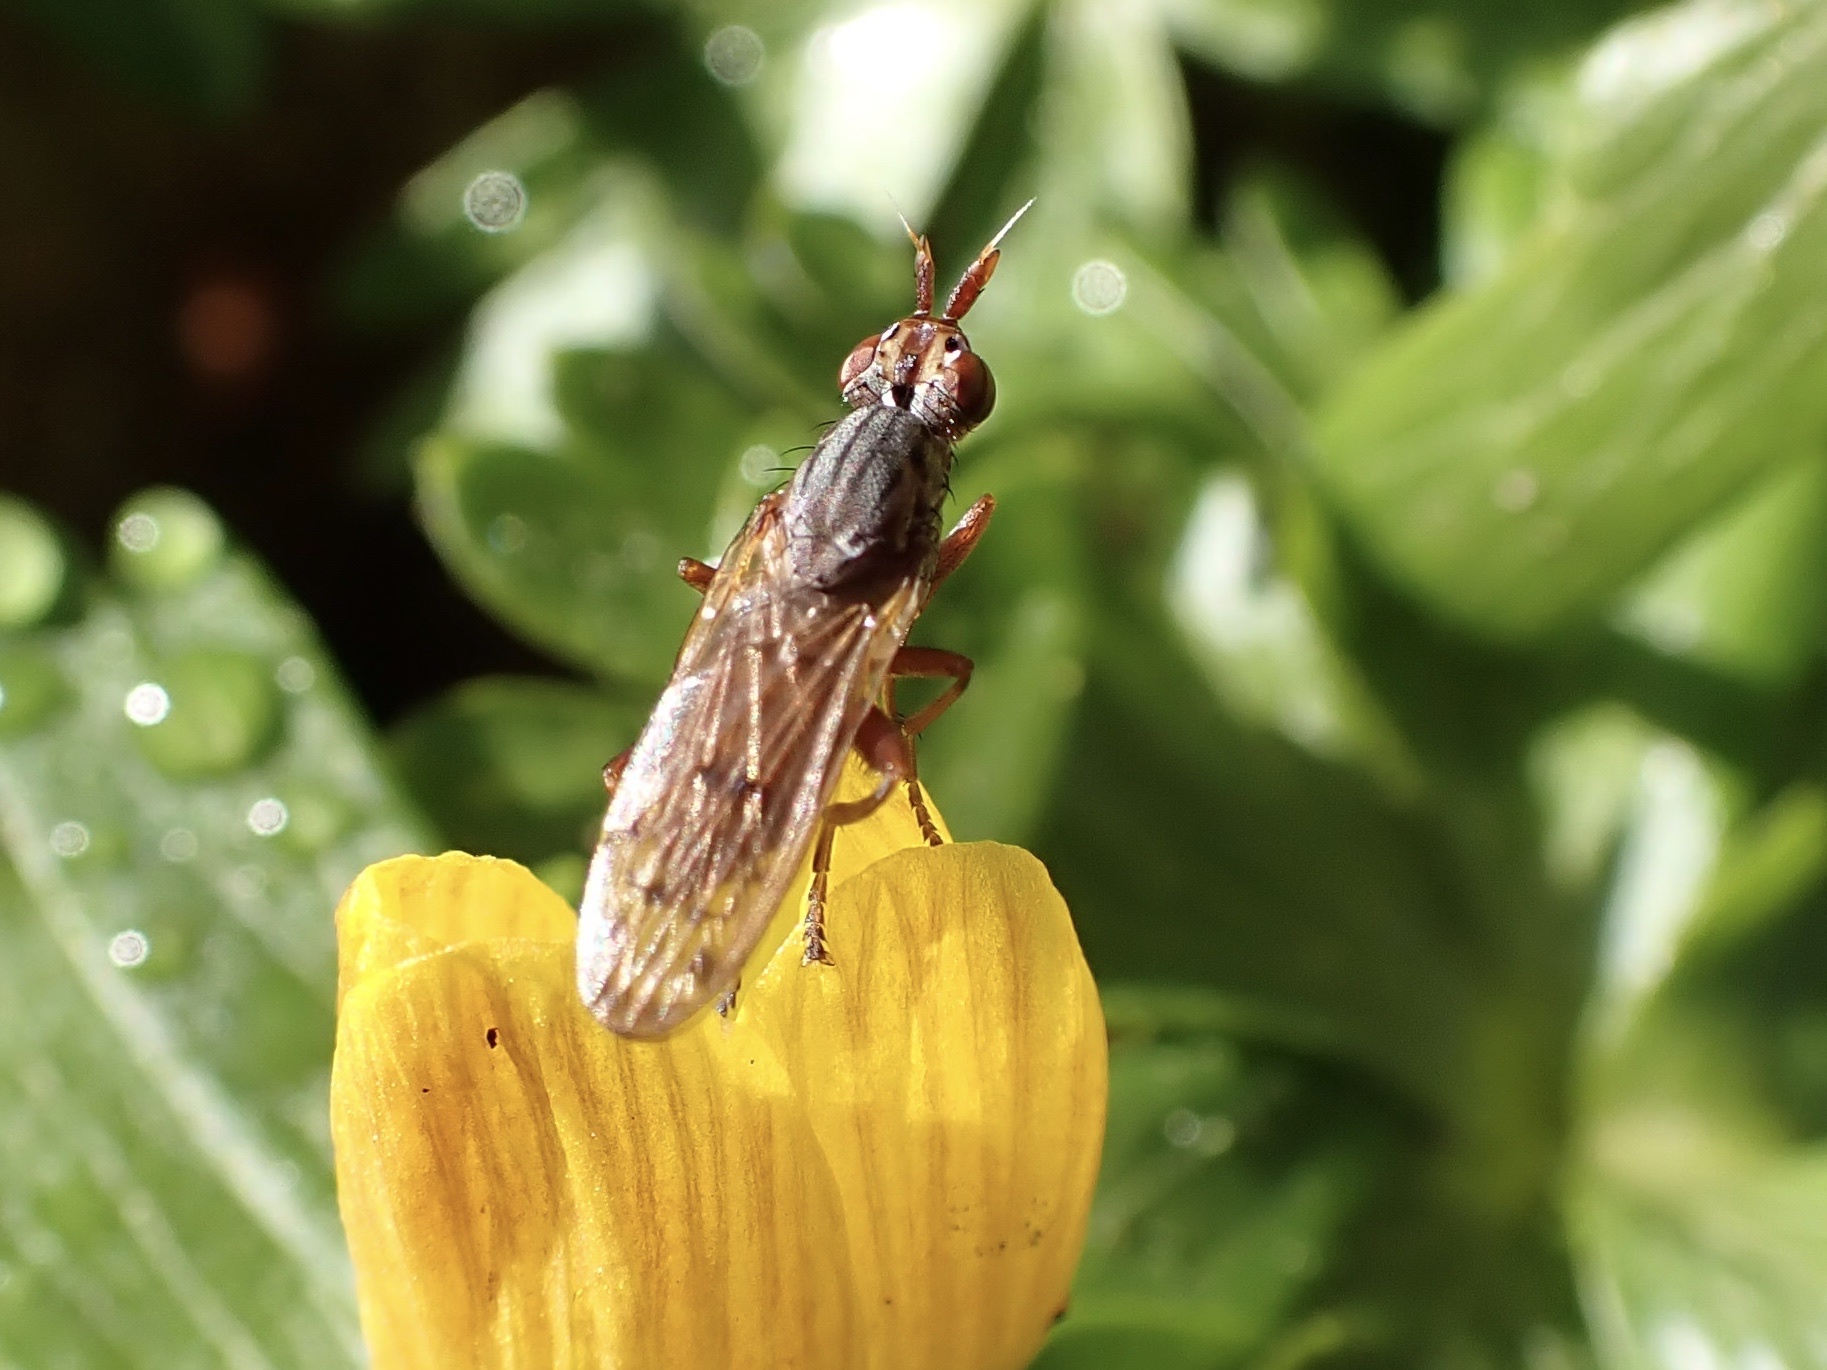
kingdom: Animalia
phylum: Arthropoda
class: Insecta
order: Diptera
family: Sciomyzidae
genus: Elgiva
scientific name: Elgiva cucularia
